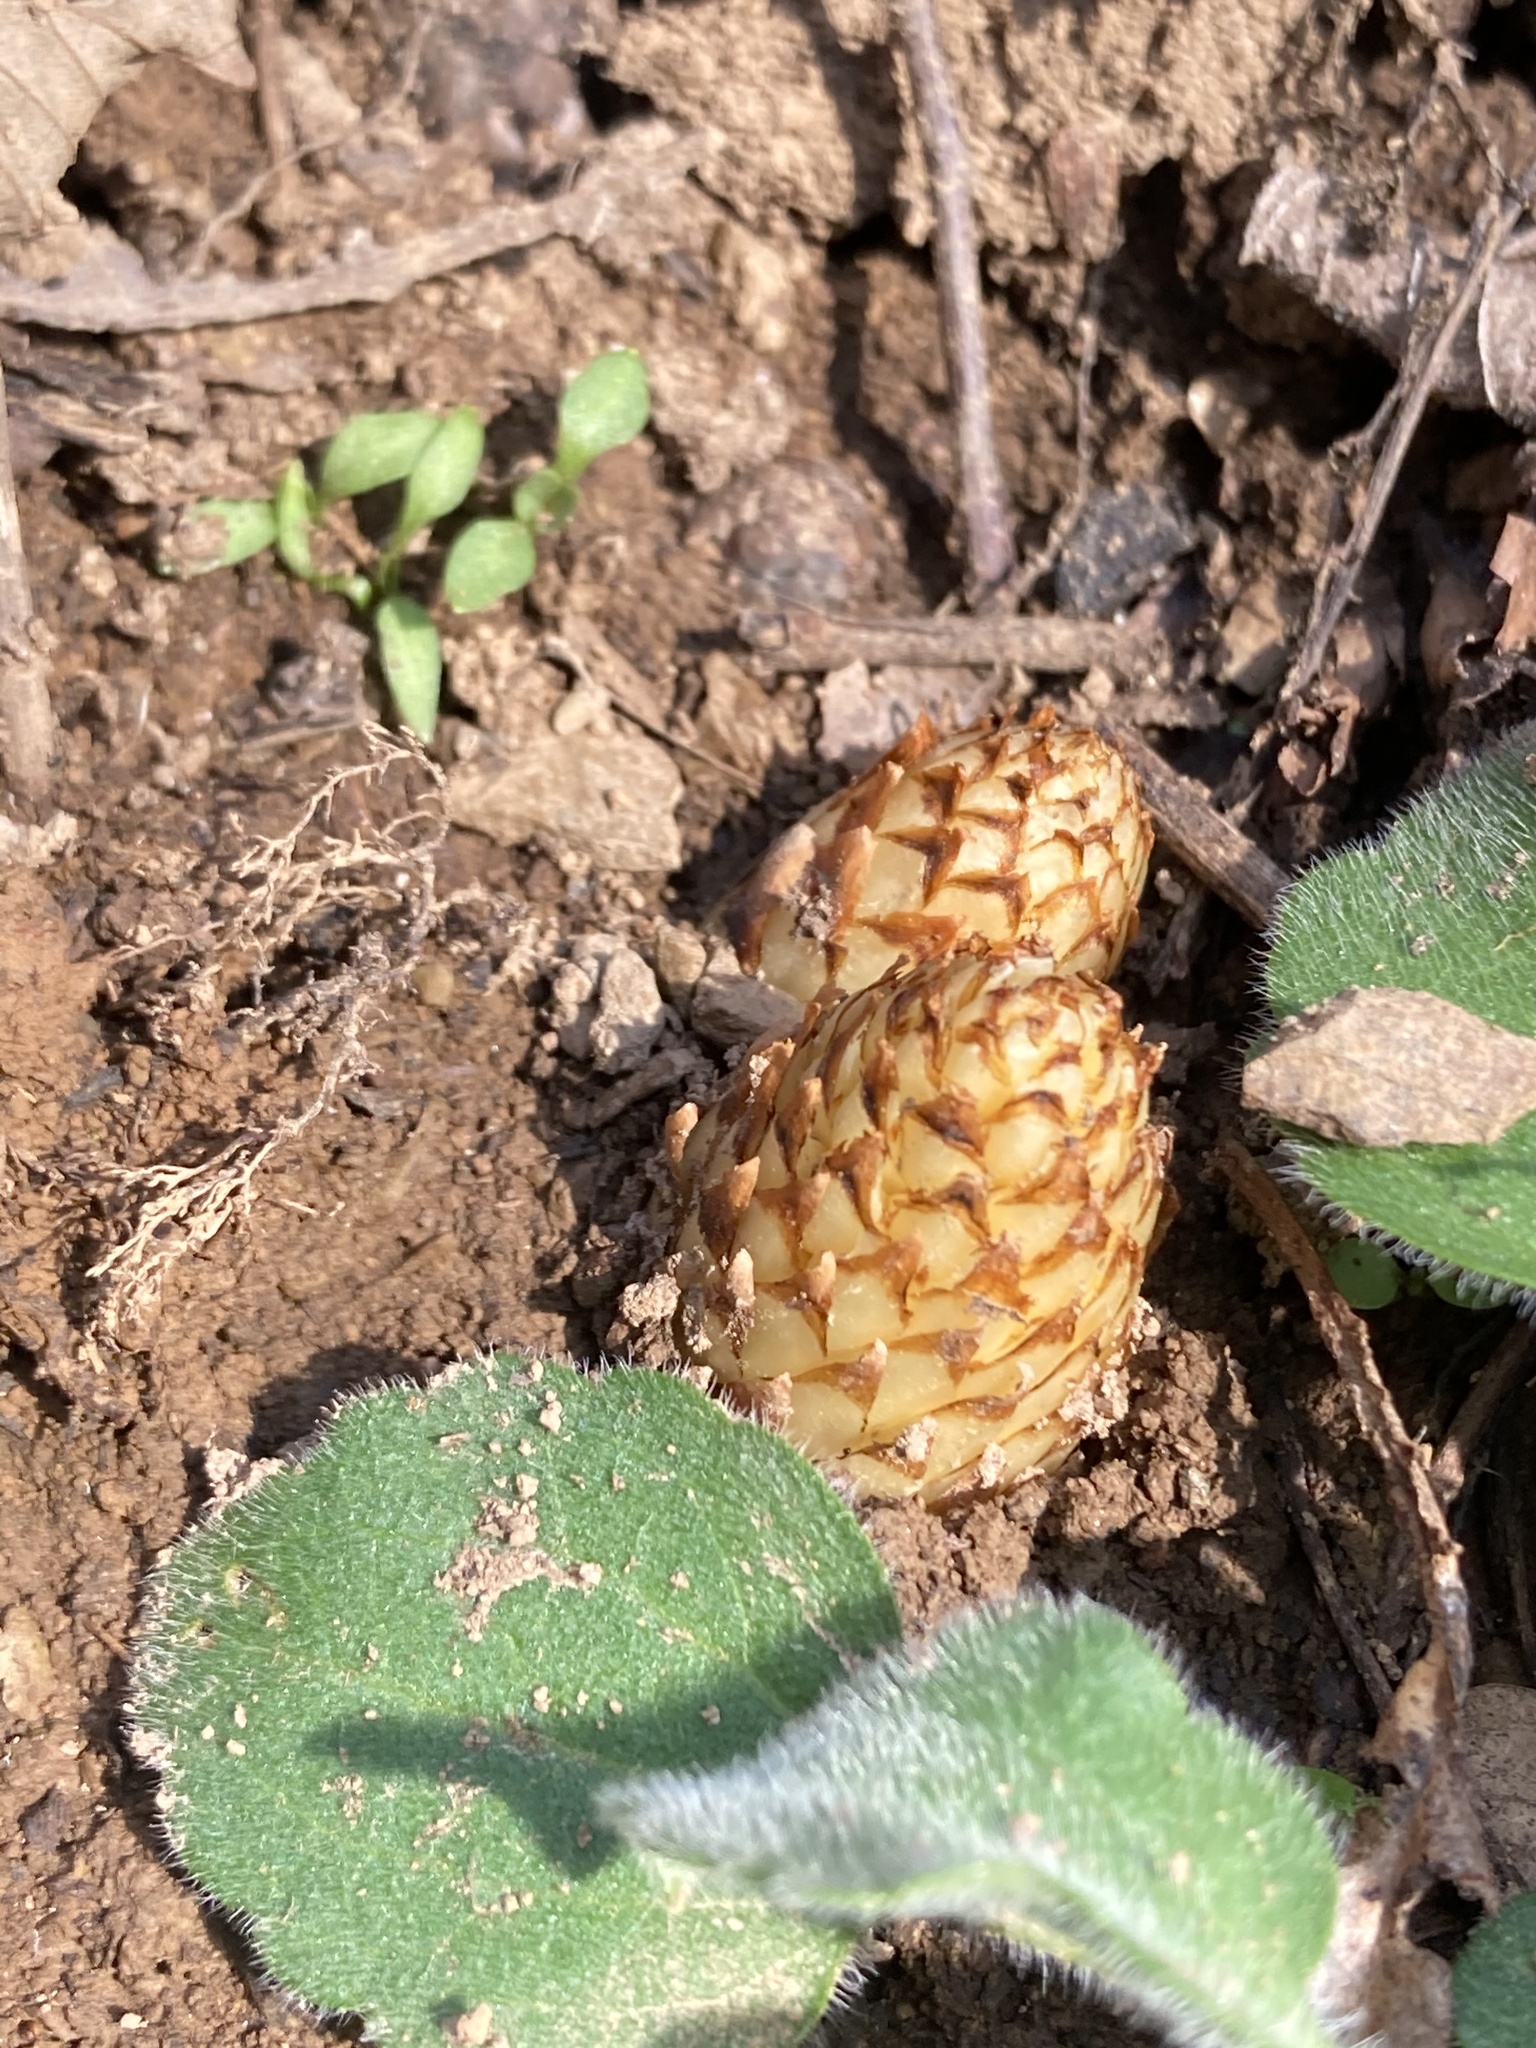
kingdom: Plantae
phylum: Tracheophyta
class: Magnoliopsida
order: Lamiales
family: Orobanchaceae
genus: Conopholis
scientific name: Conopholis americana
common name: American cancer-root
